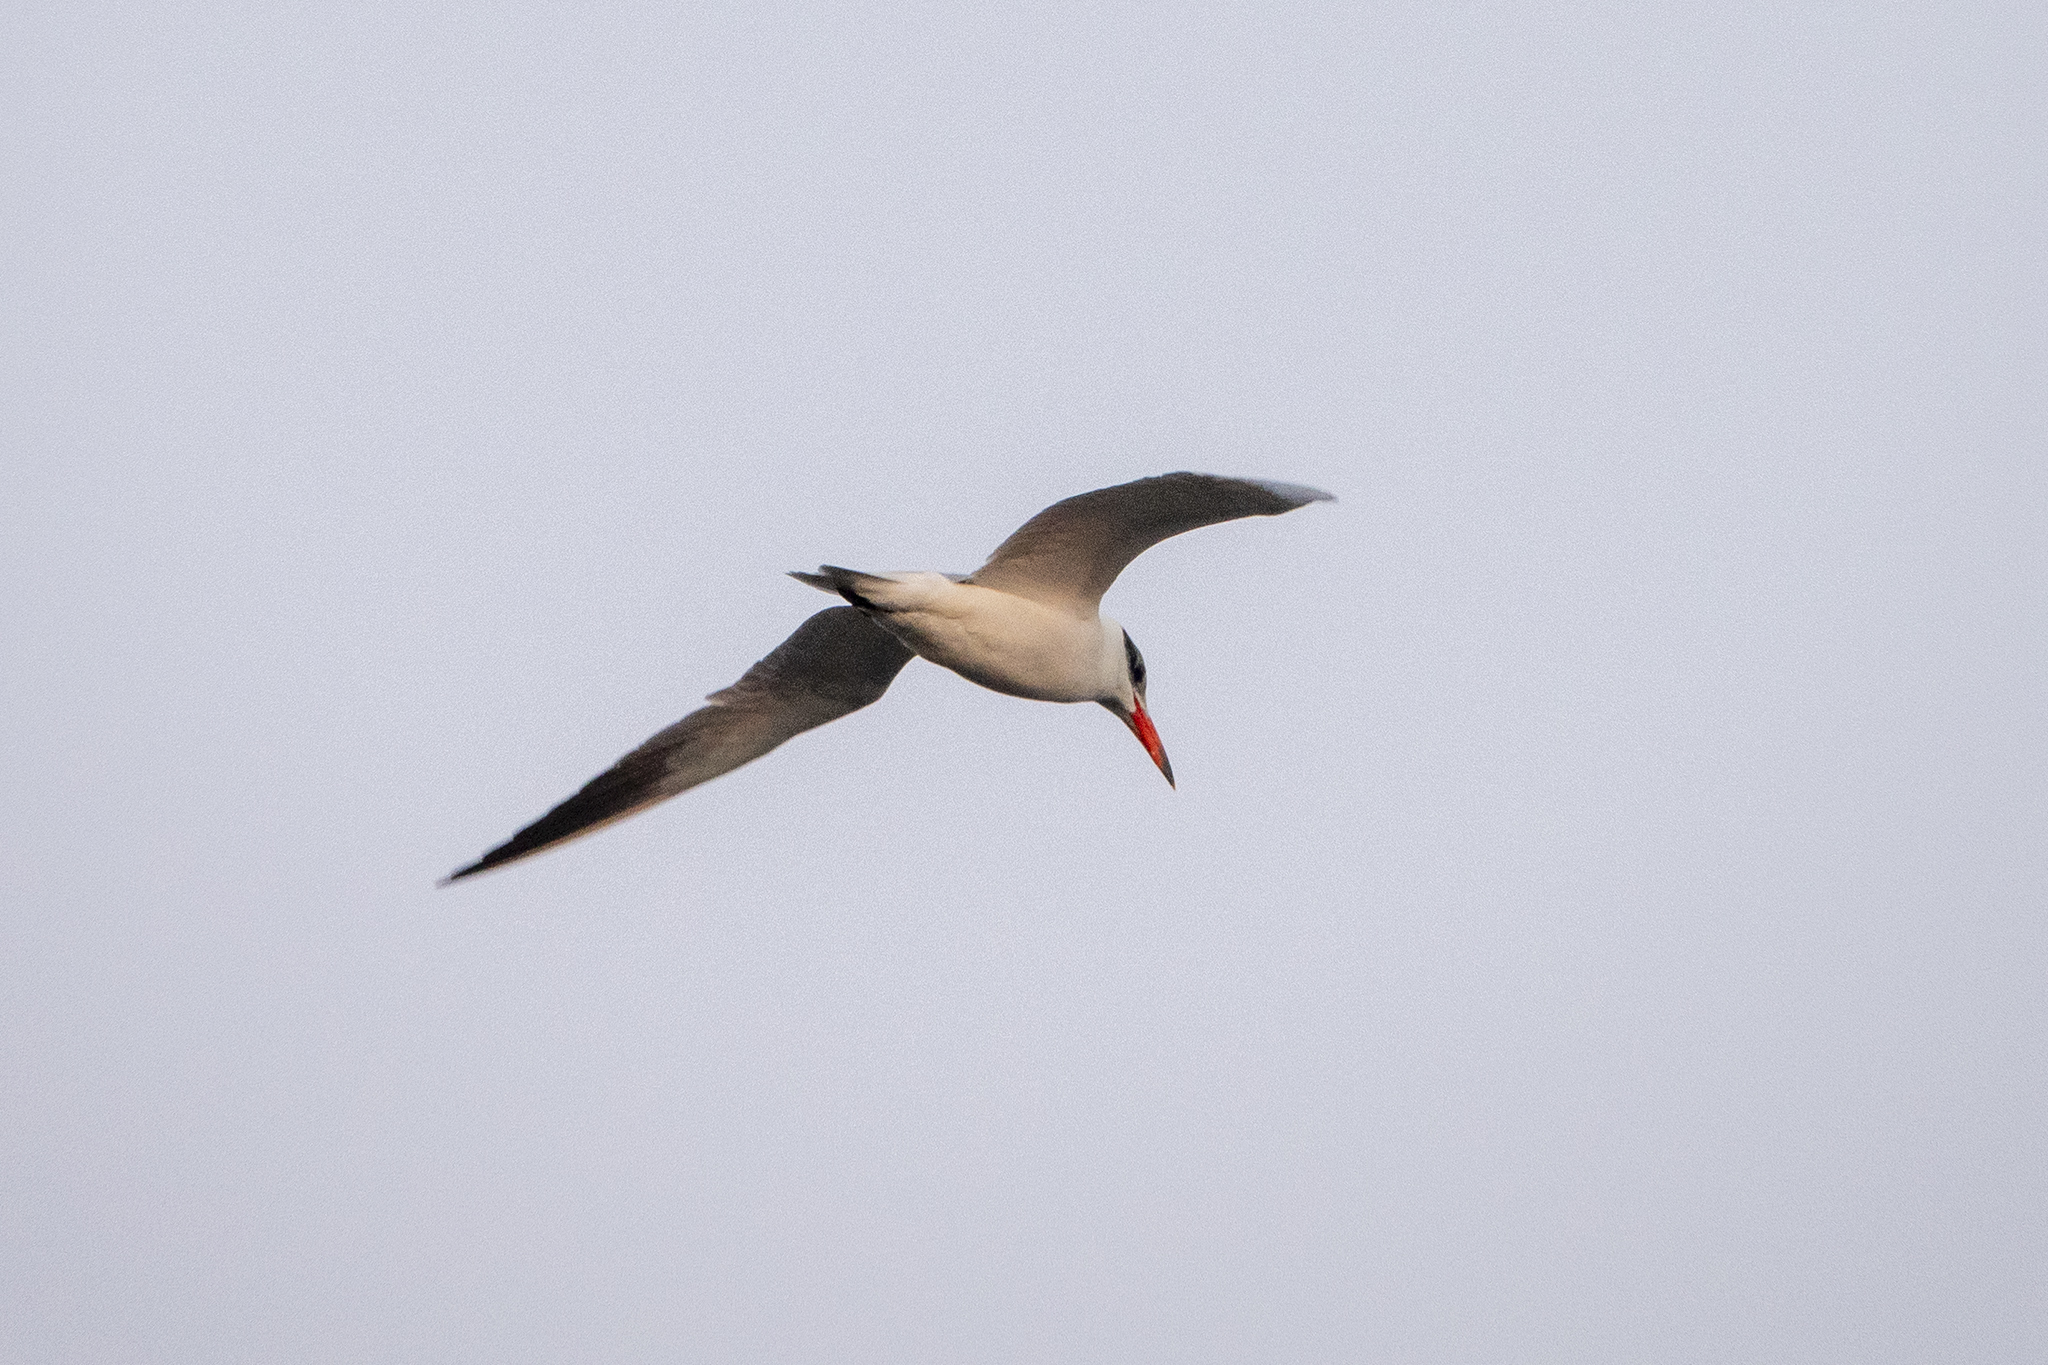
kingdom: Animalia
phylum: Chordata
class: Aves
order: Charadriiformes
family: Laridae
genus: Hydroprogne
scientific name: Hydroprogne caspia
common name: Caspian tern
